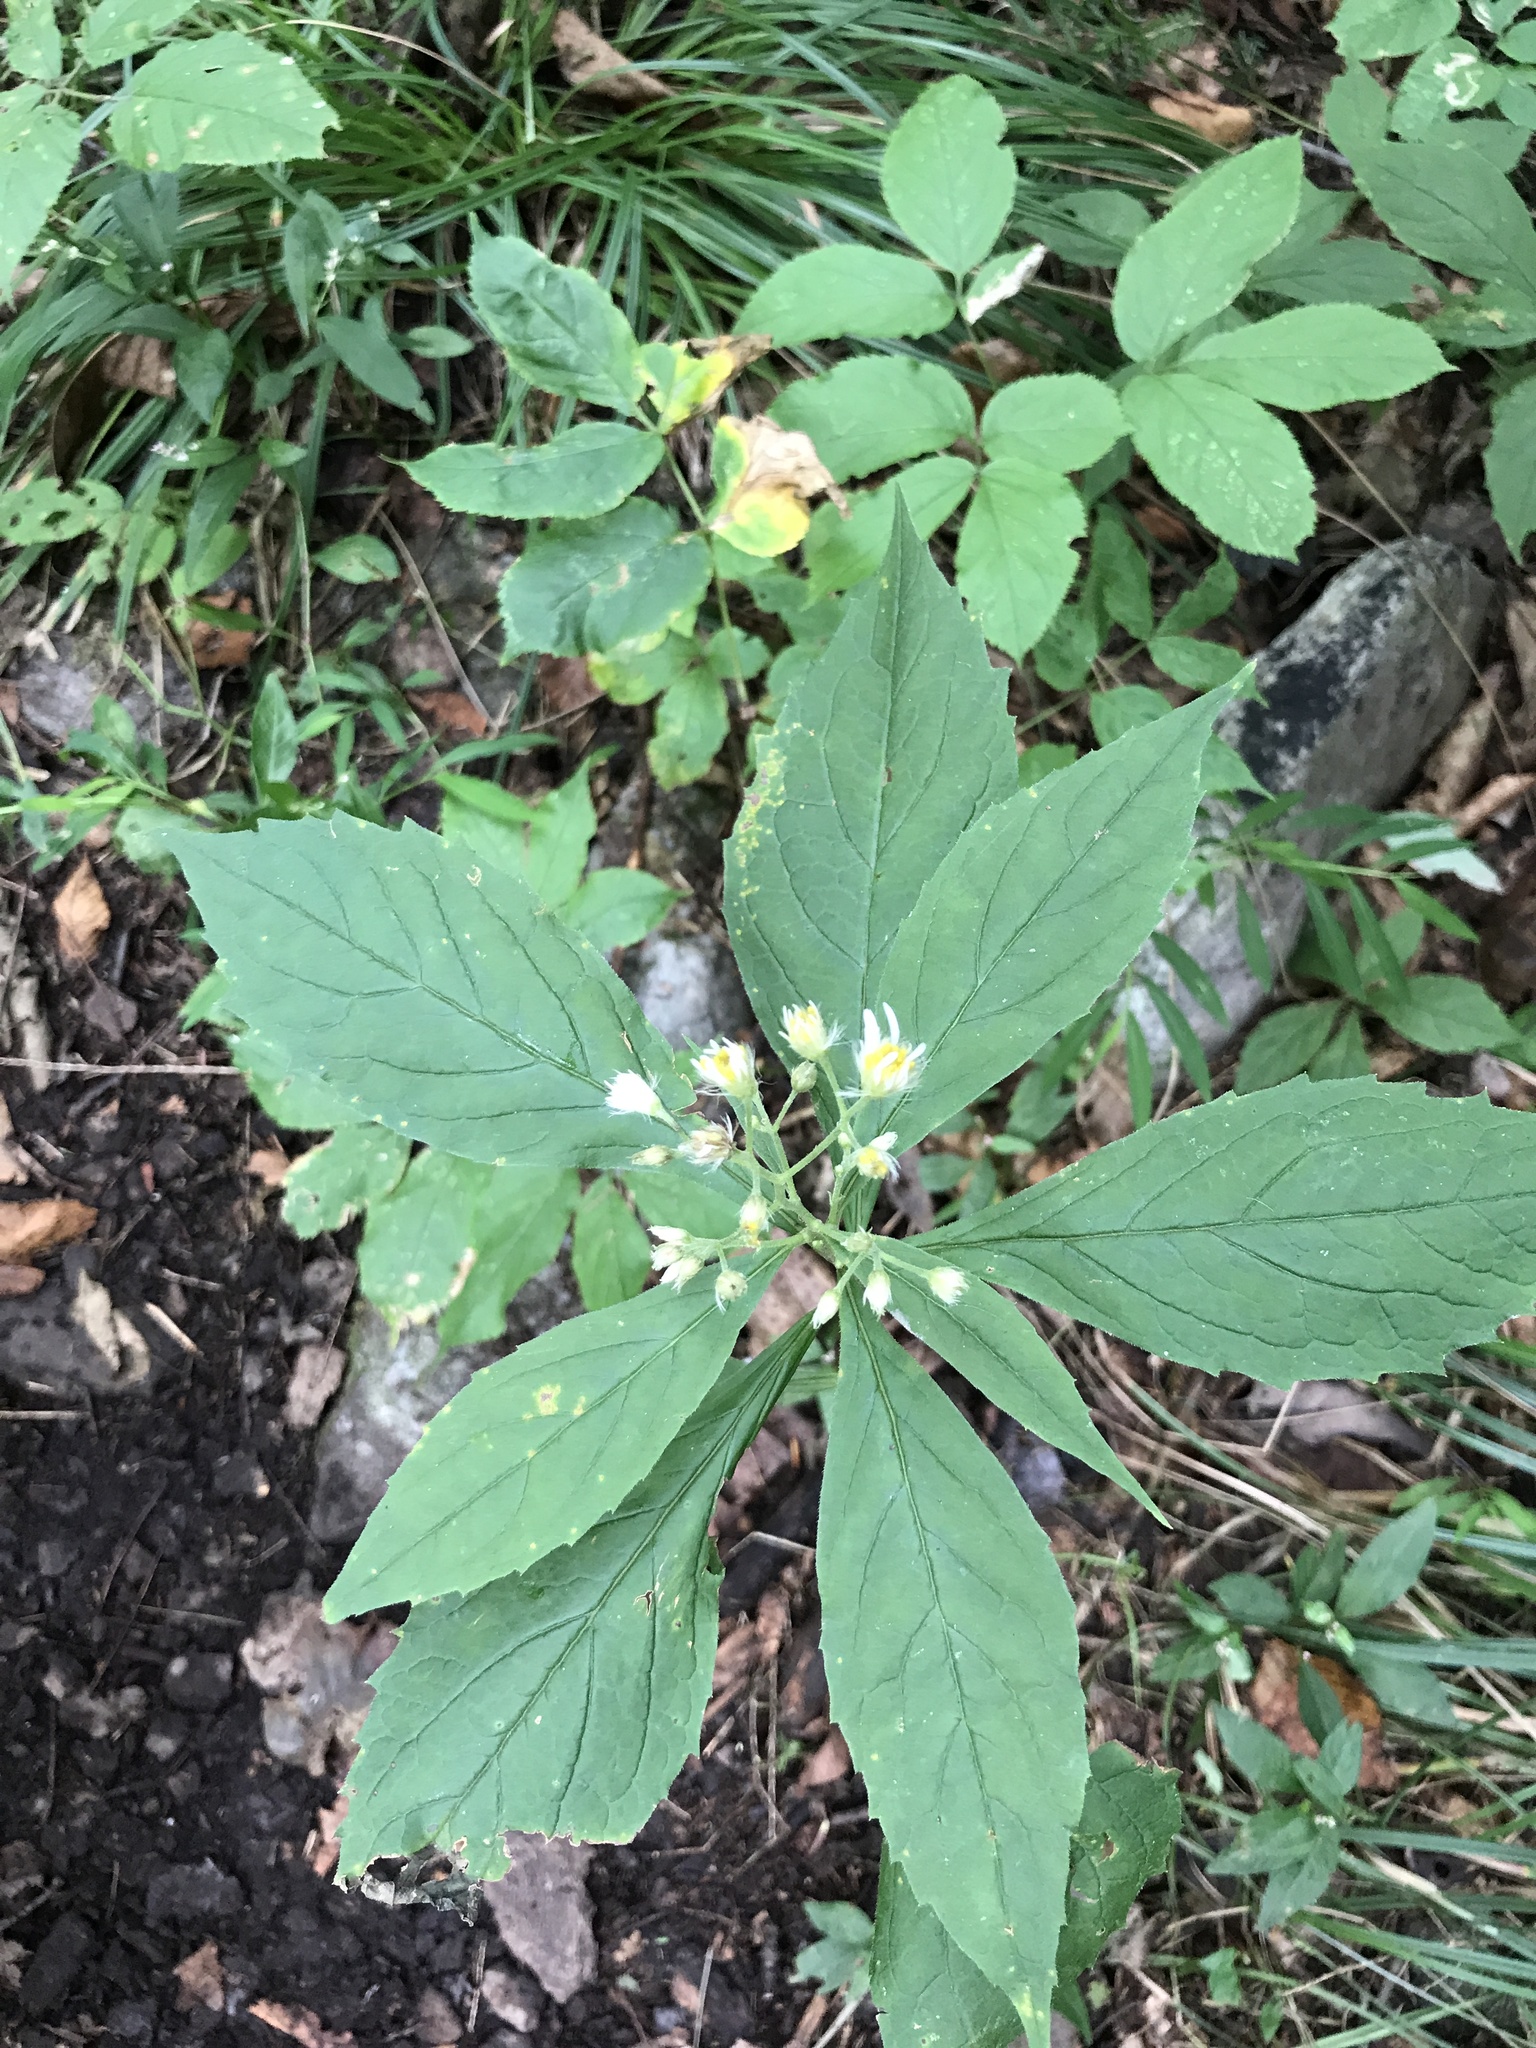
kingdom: Plantae
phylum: Tracheophyta
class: Magnoliopsida
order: Asterales
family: Asteraceae
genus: Oclemena
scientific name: Oclemena acuminata
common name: Mountain aster
